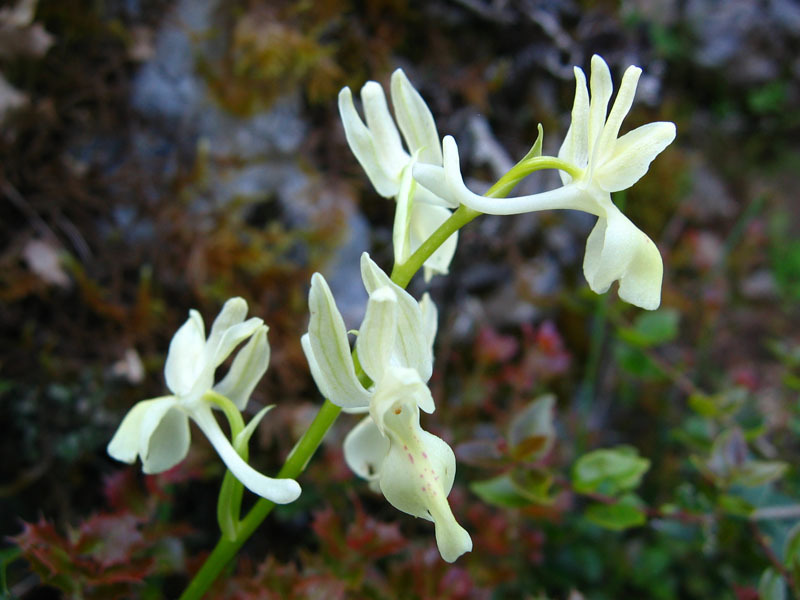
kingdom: Plantae
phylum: Tracheophyta
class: Liliopsida
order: Asparagales
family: Orchidaceae
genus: Orchis
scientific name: Orchis provincialis
